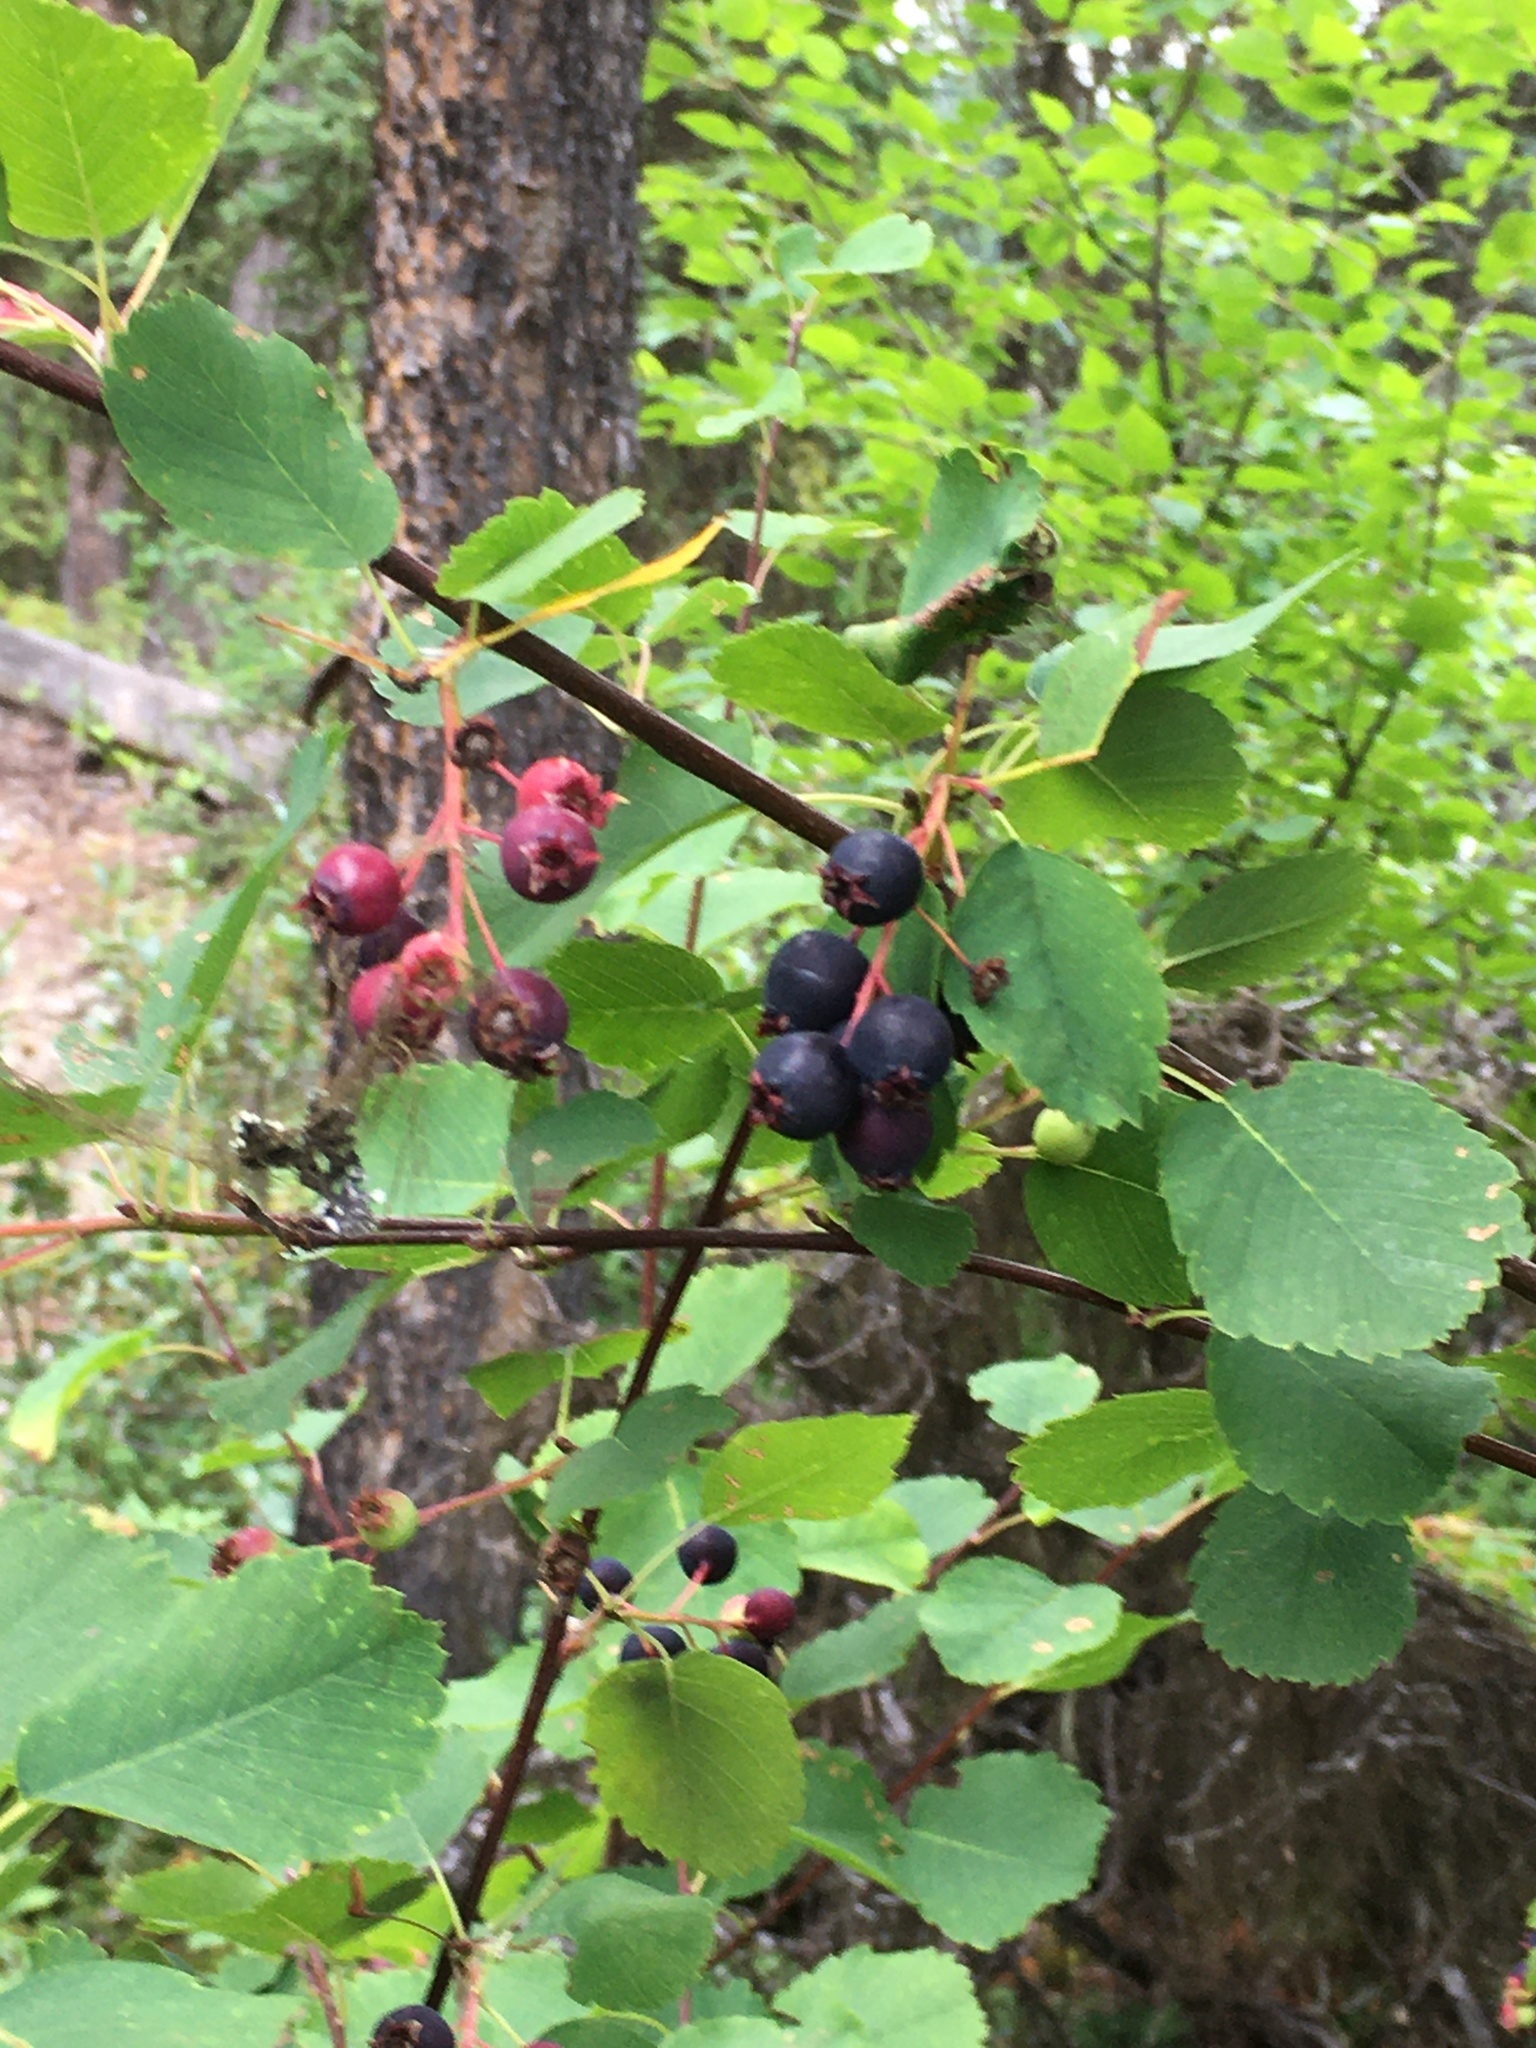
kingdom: Plantae
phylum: Tracheophyta
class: Magnoliopsida
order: Rosales
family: Rosaceae
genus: Amelanchier
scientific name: Amelanchier alnifolia
